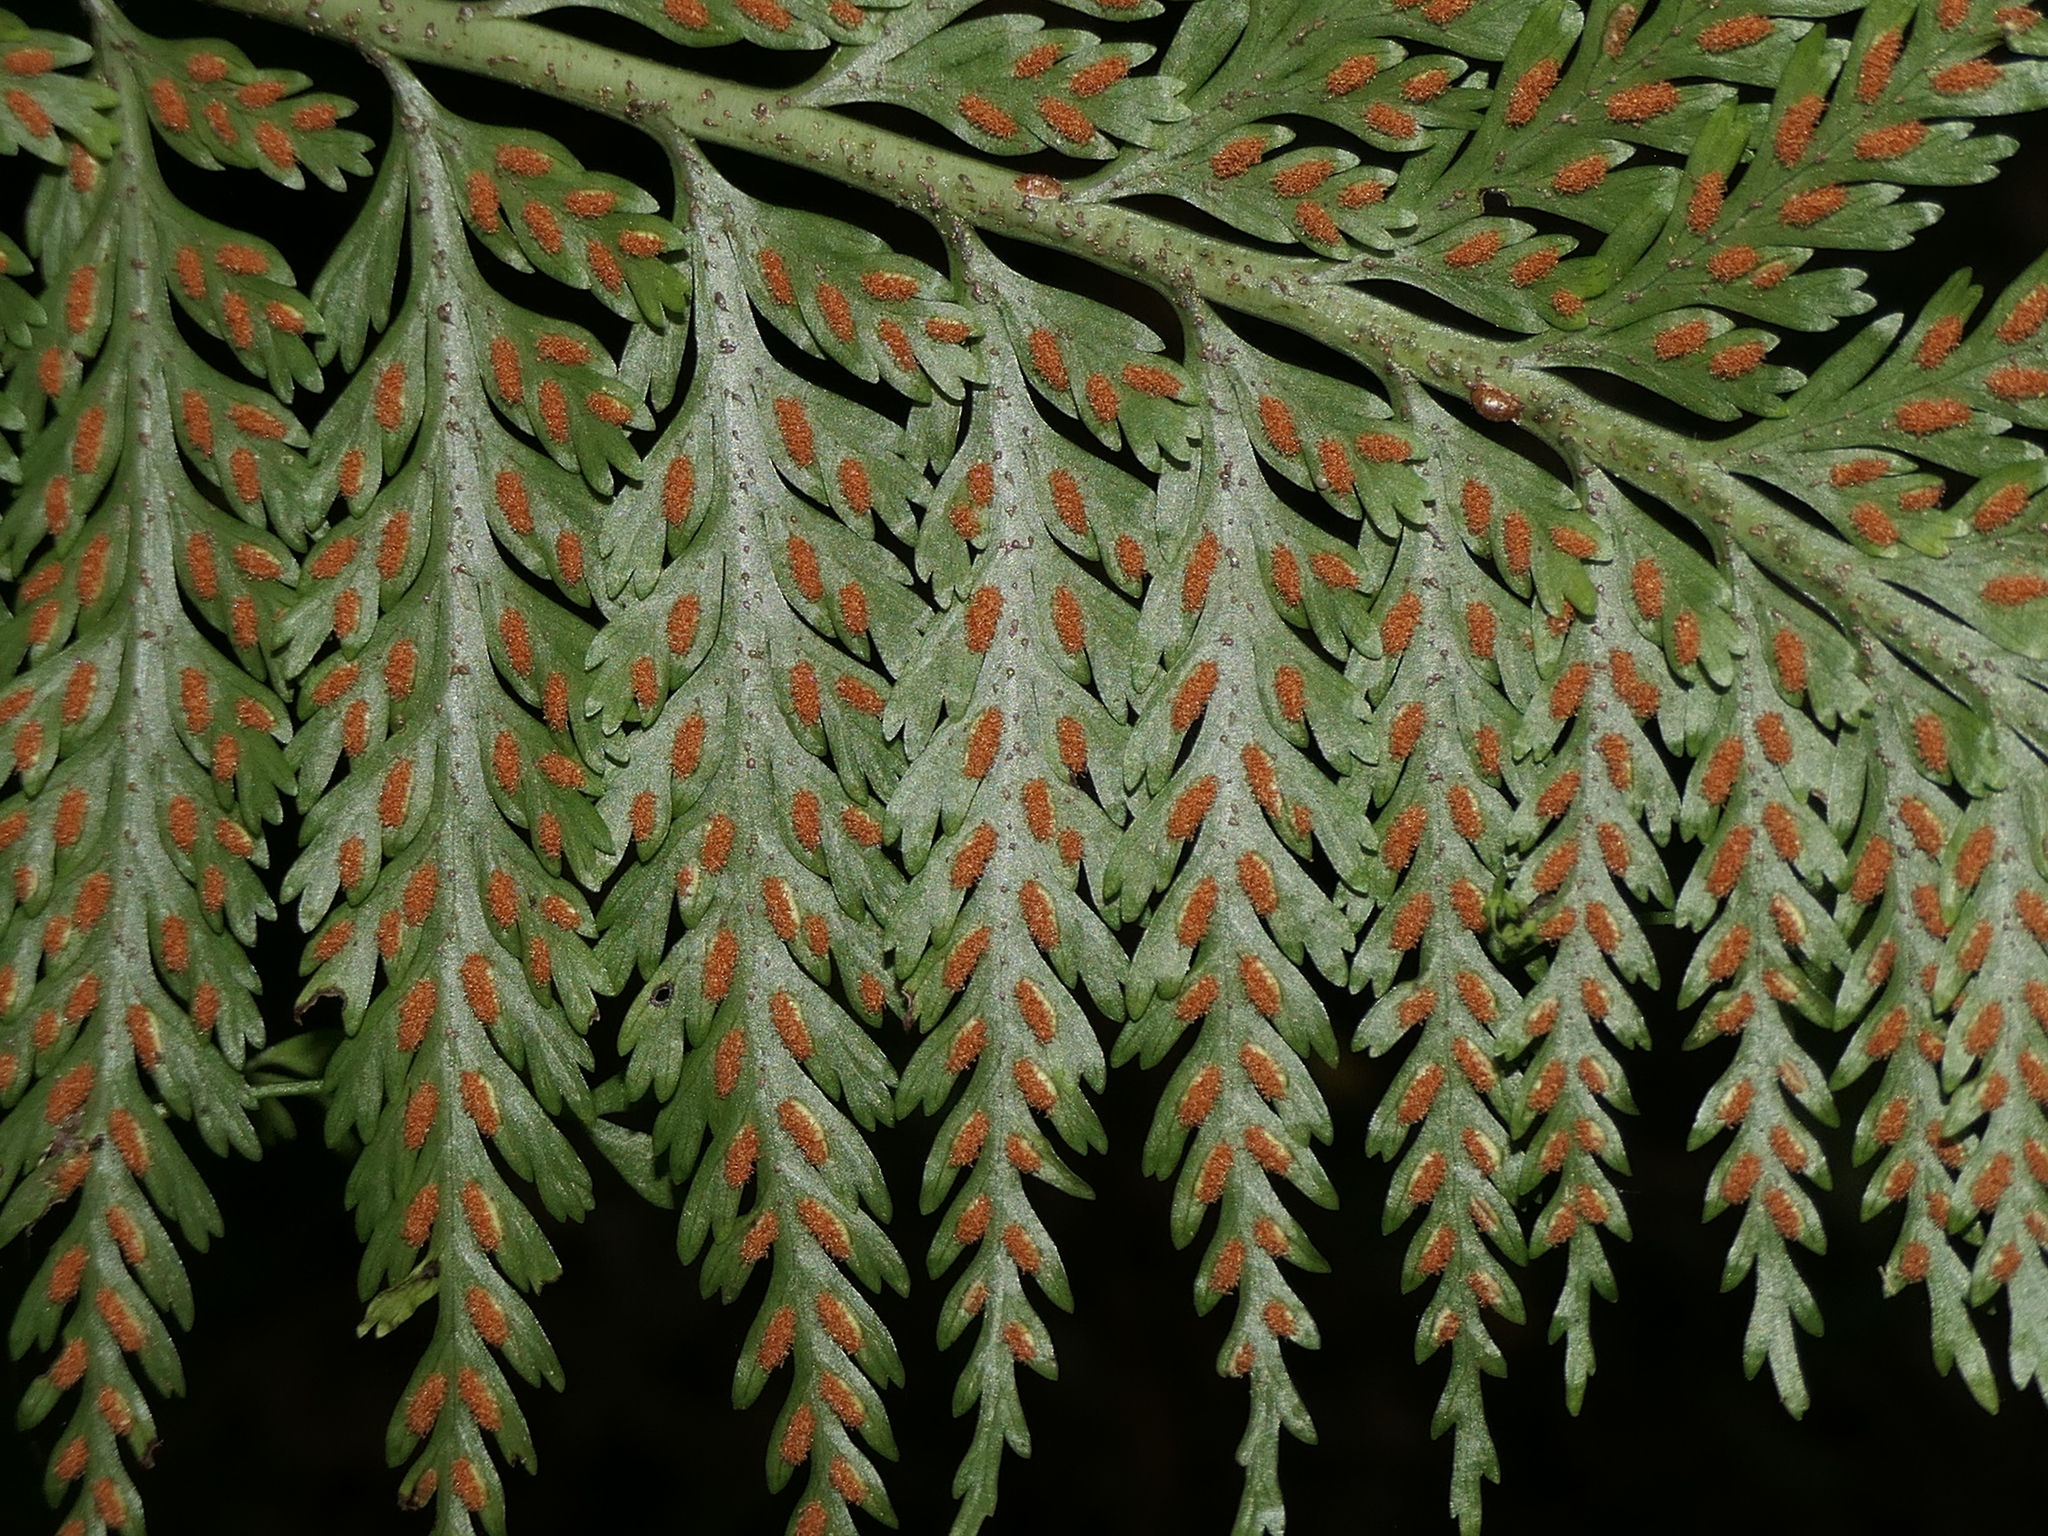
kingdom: Plantae
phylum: Tracheophyta
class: Polypodiopsida
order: Polypodiales
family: Aspleniaceae
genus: Asplenium
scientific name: Asplenium bulbiferum
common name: Mother fern
